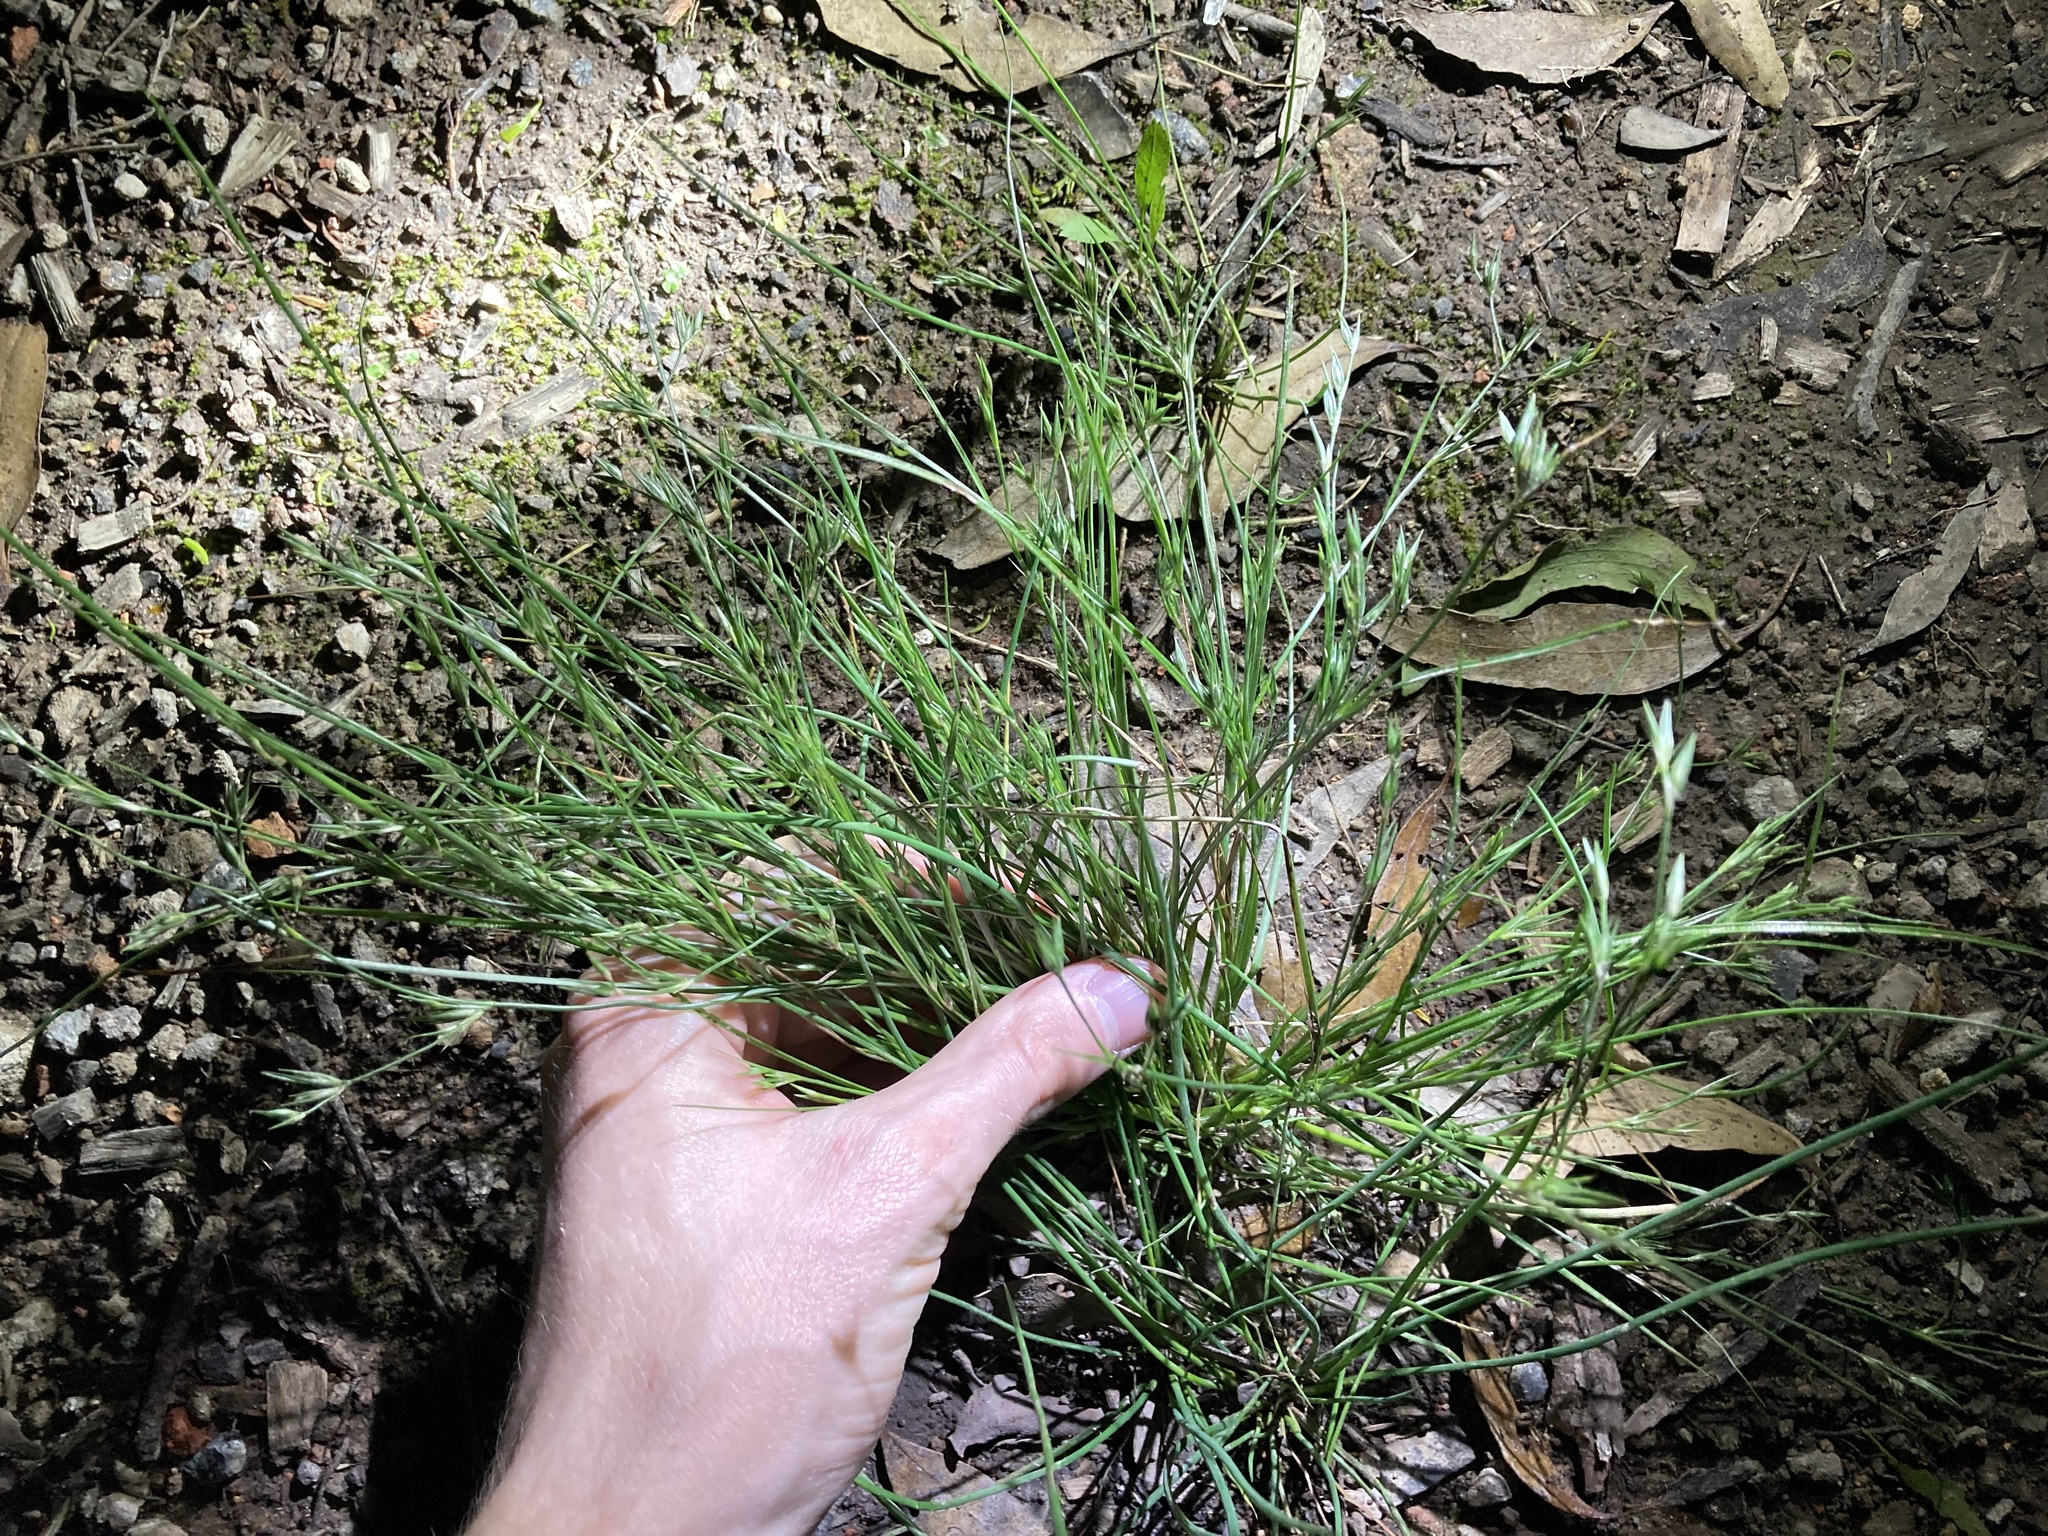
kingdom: Plantae
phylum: Tracheophyta
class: Liliopsida
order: Poales
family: Juncaceae
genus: Juncus
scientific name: Juncus bufonius
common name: Toad rush
